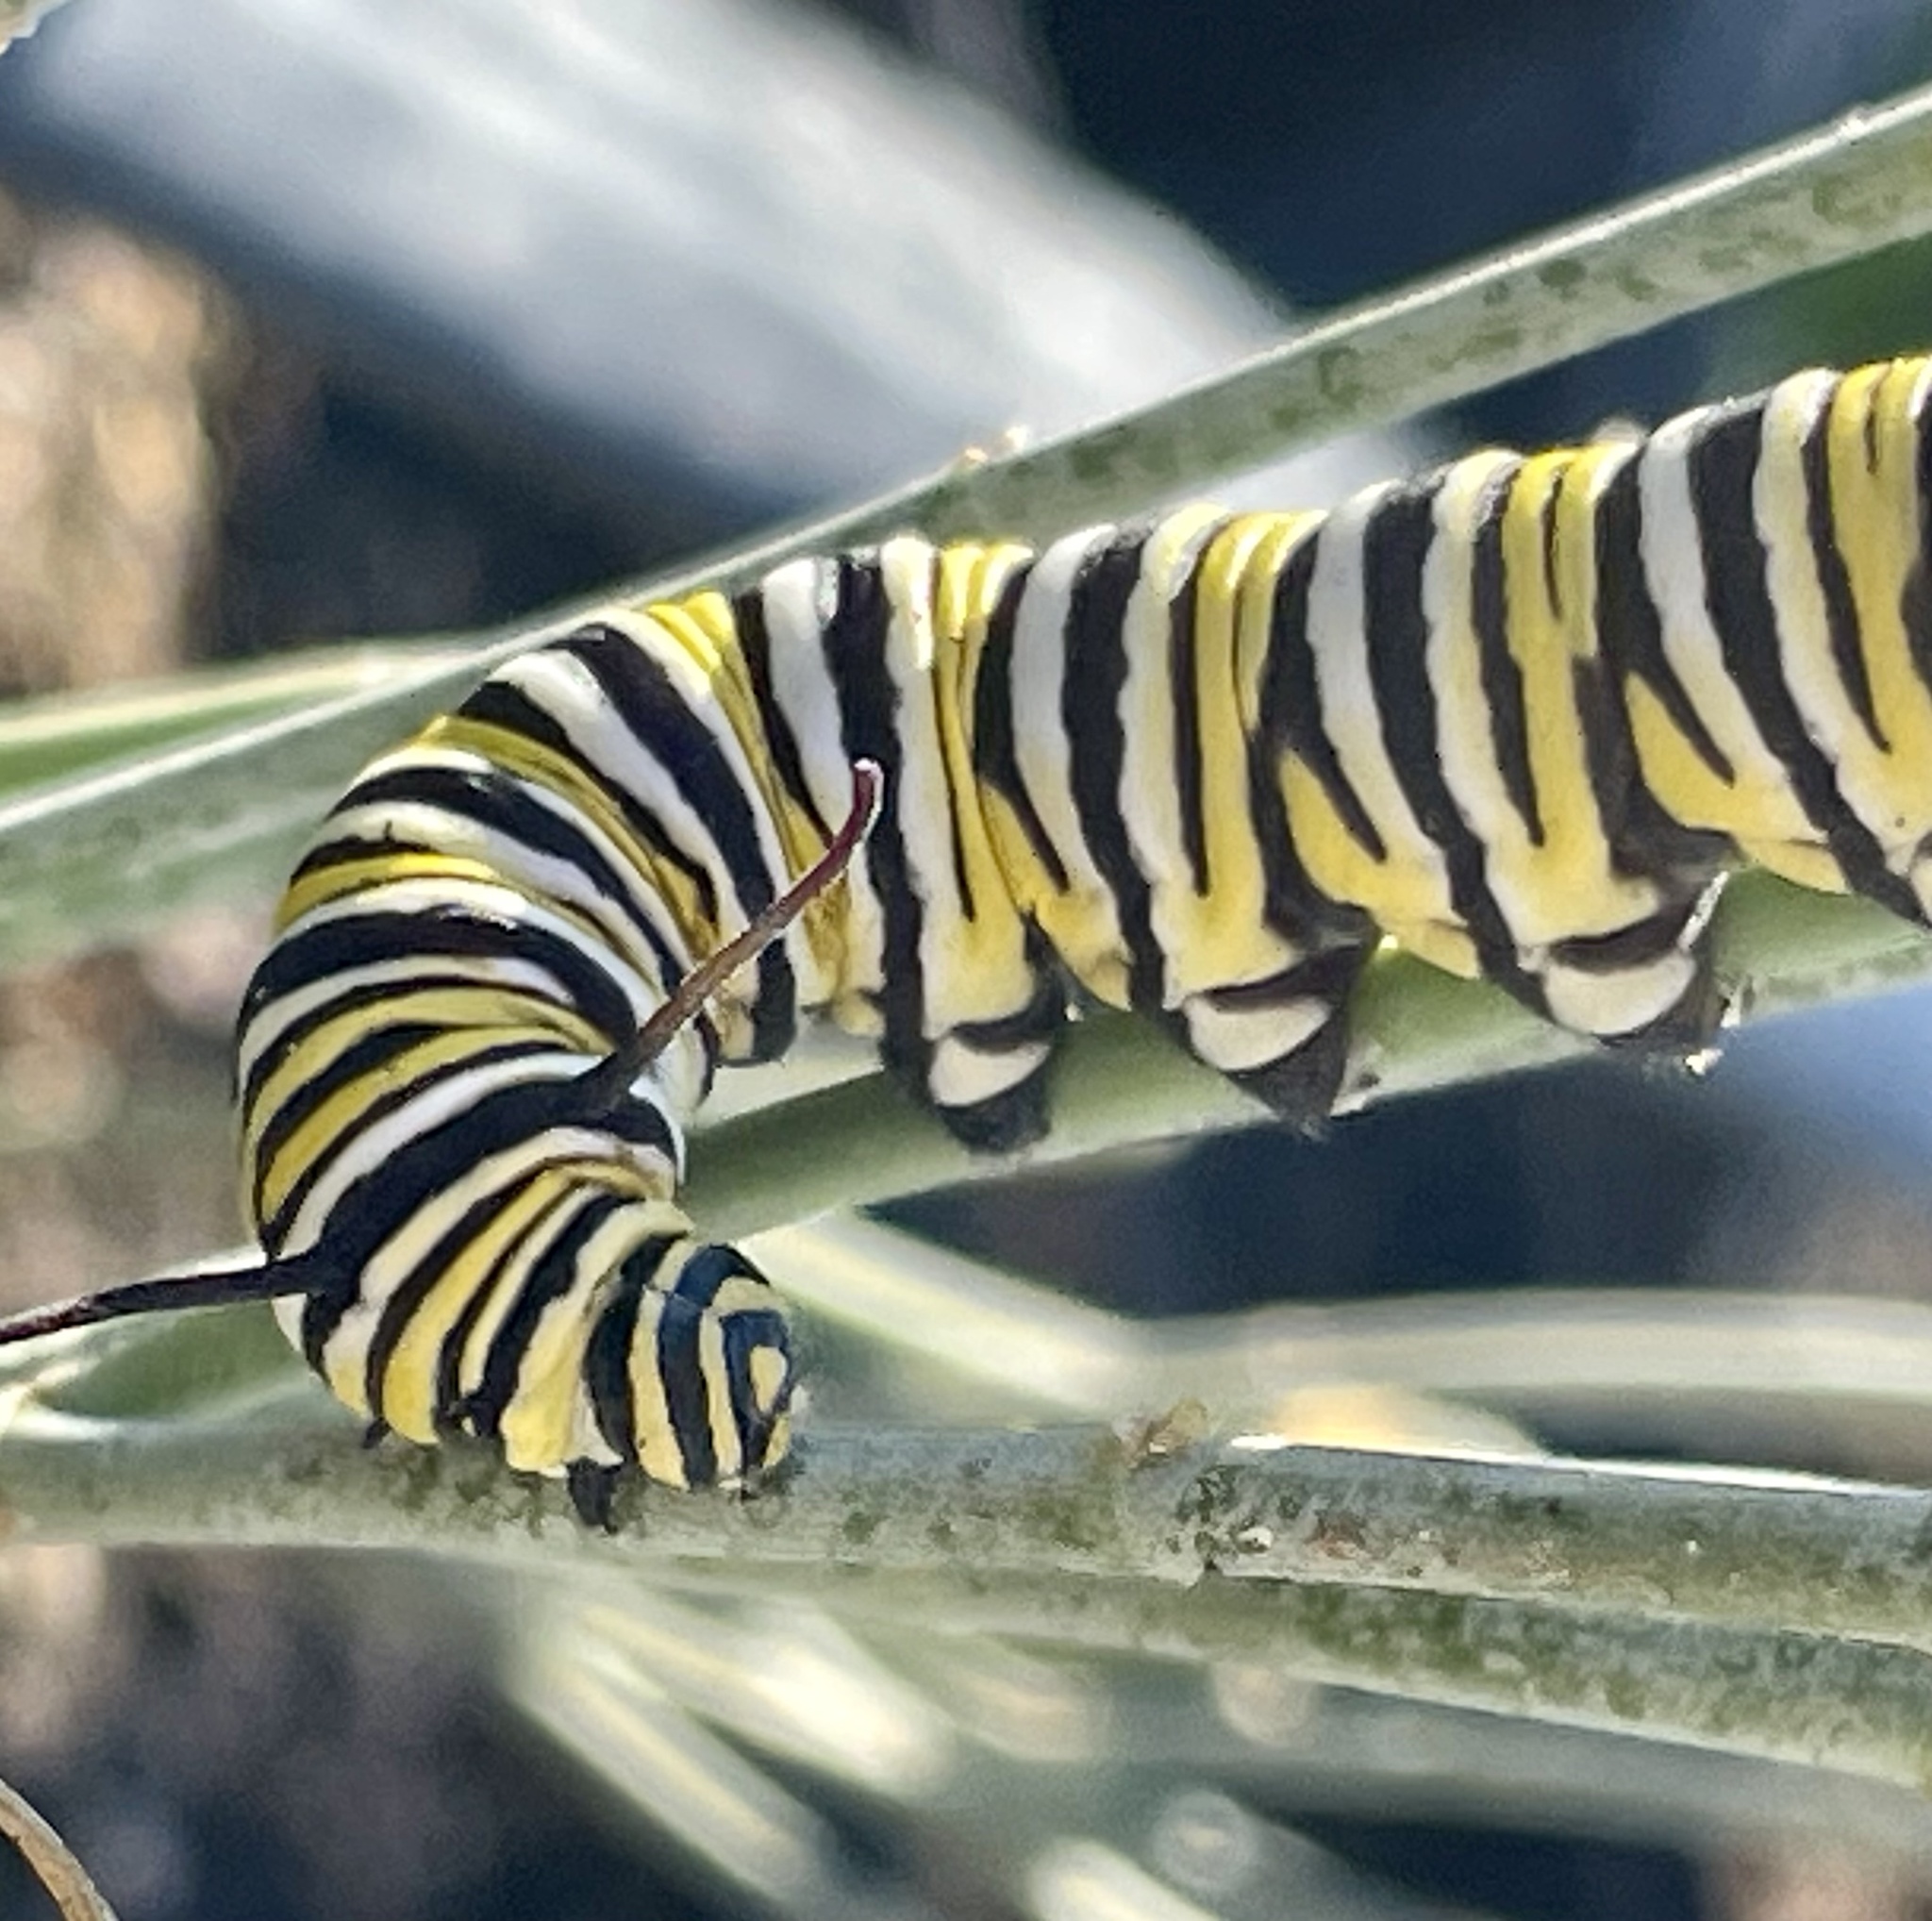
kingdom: Animalia
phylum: Arthropoda
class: Insecta
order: Lepidoptera
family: Nymphalidae
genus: Danaus
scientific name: Danaus plexippus
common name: Monarch
